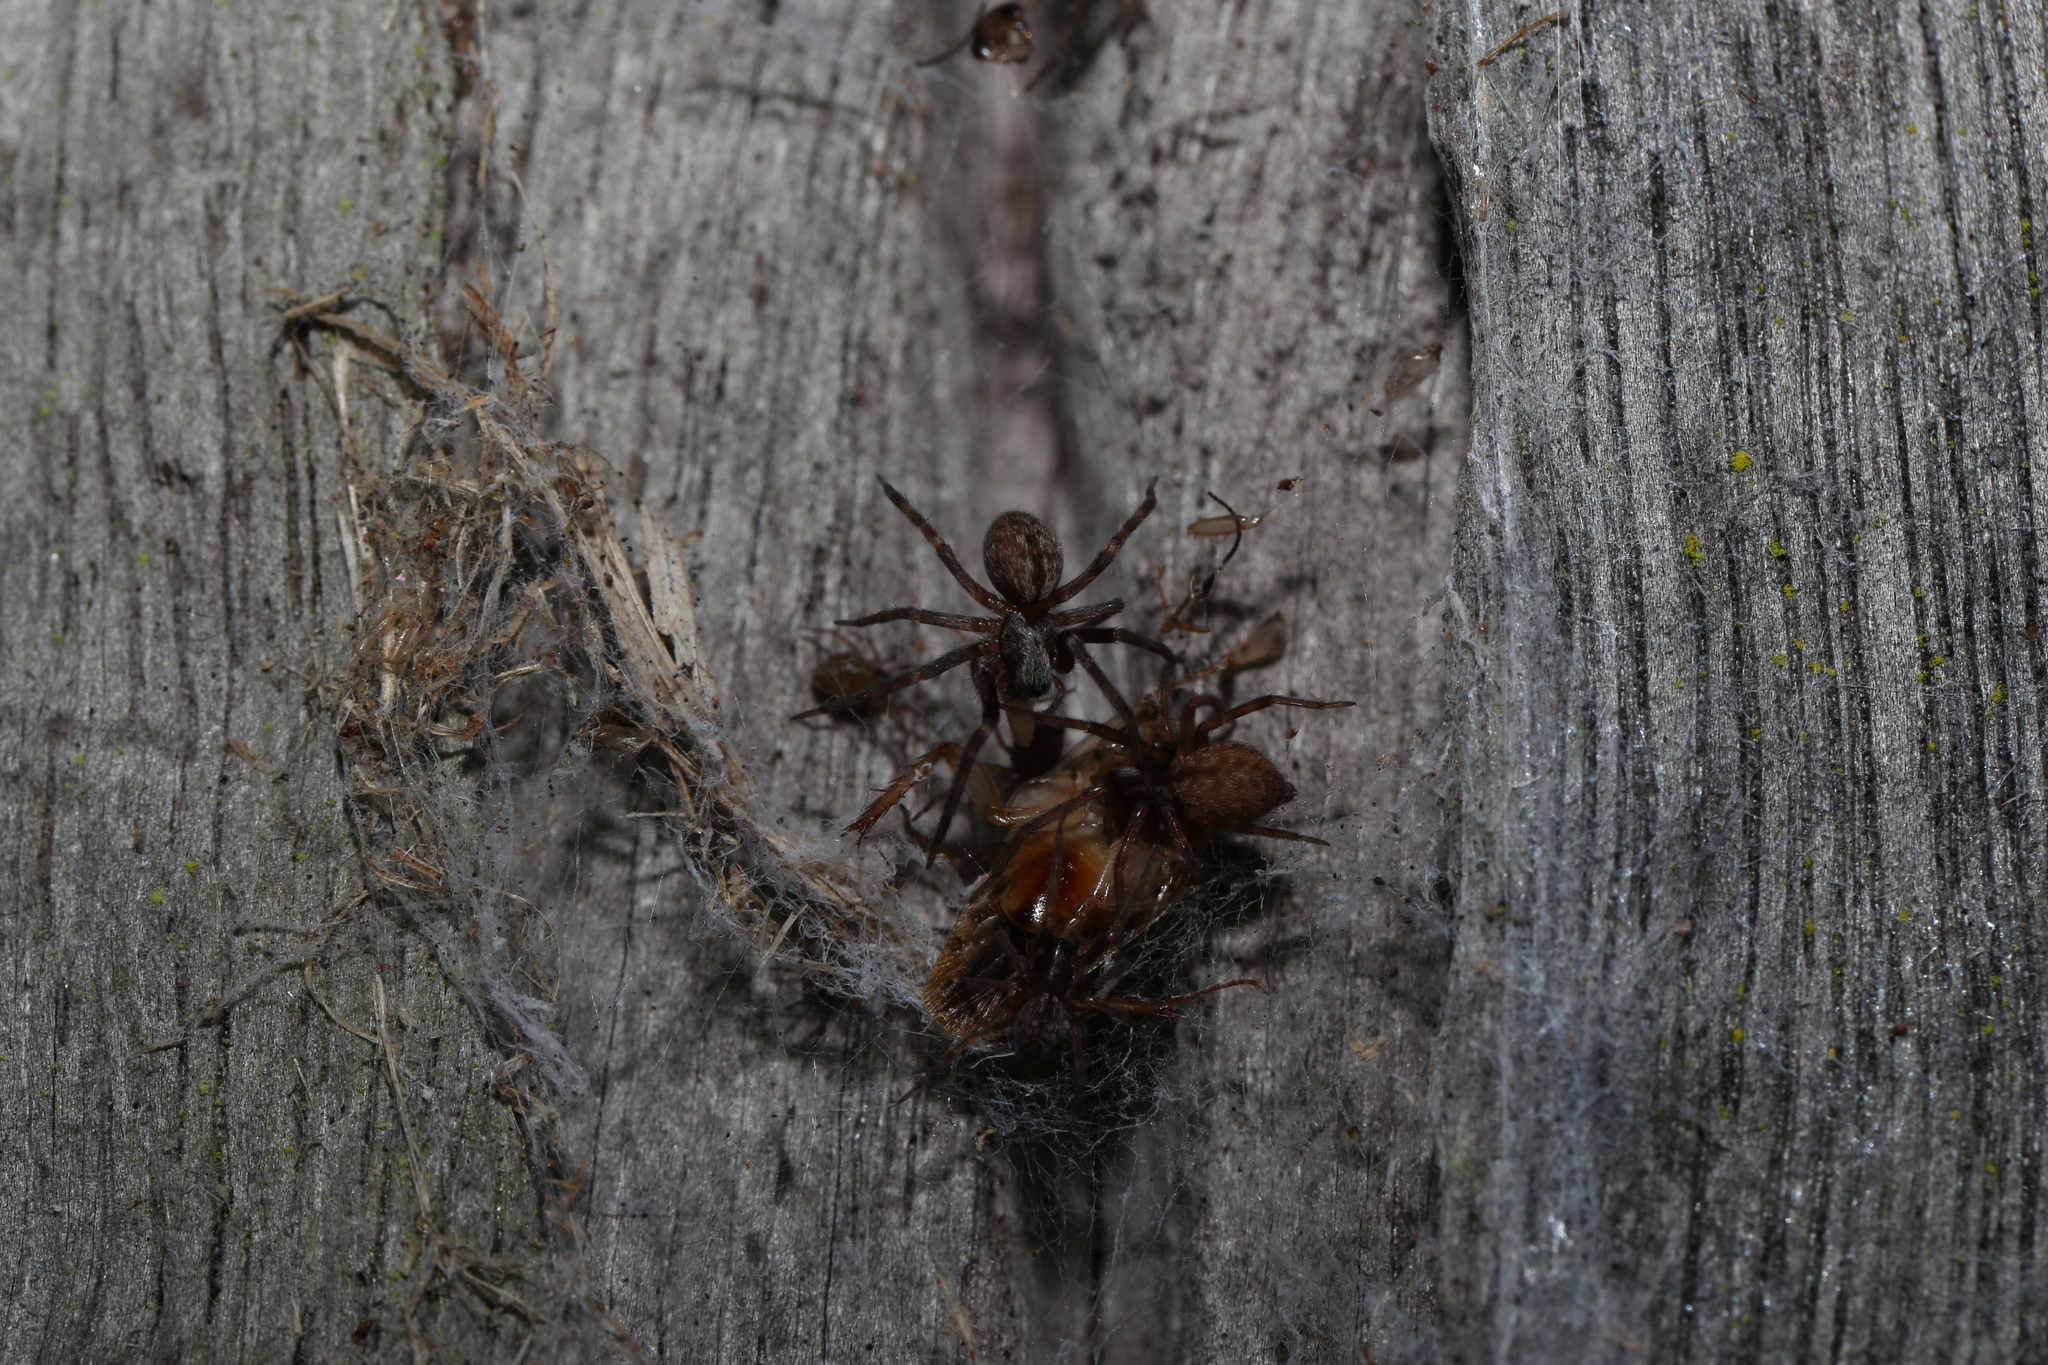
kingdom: Animalia
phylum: Arthropoda
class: Arachnida
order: Araneae
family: Desidae
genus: Badumna
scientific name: Badumna longinqua
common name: Gray house spider
